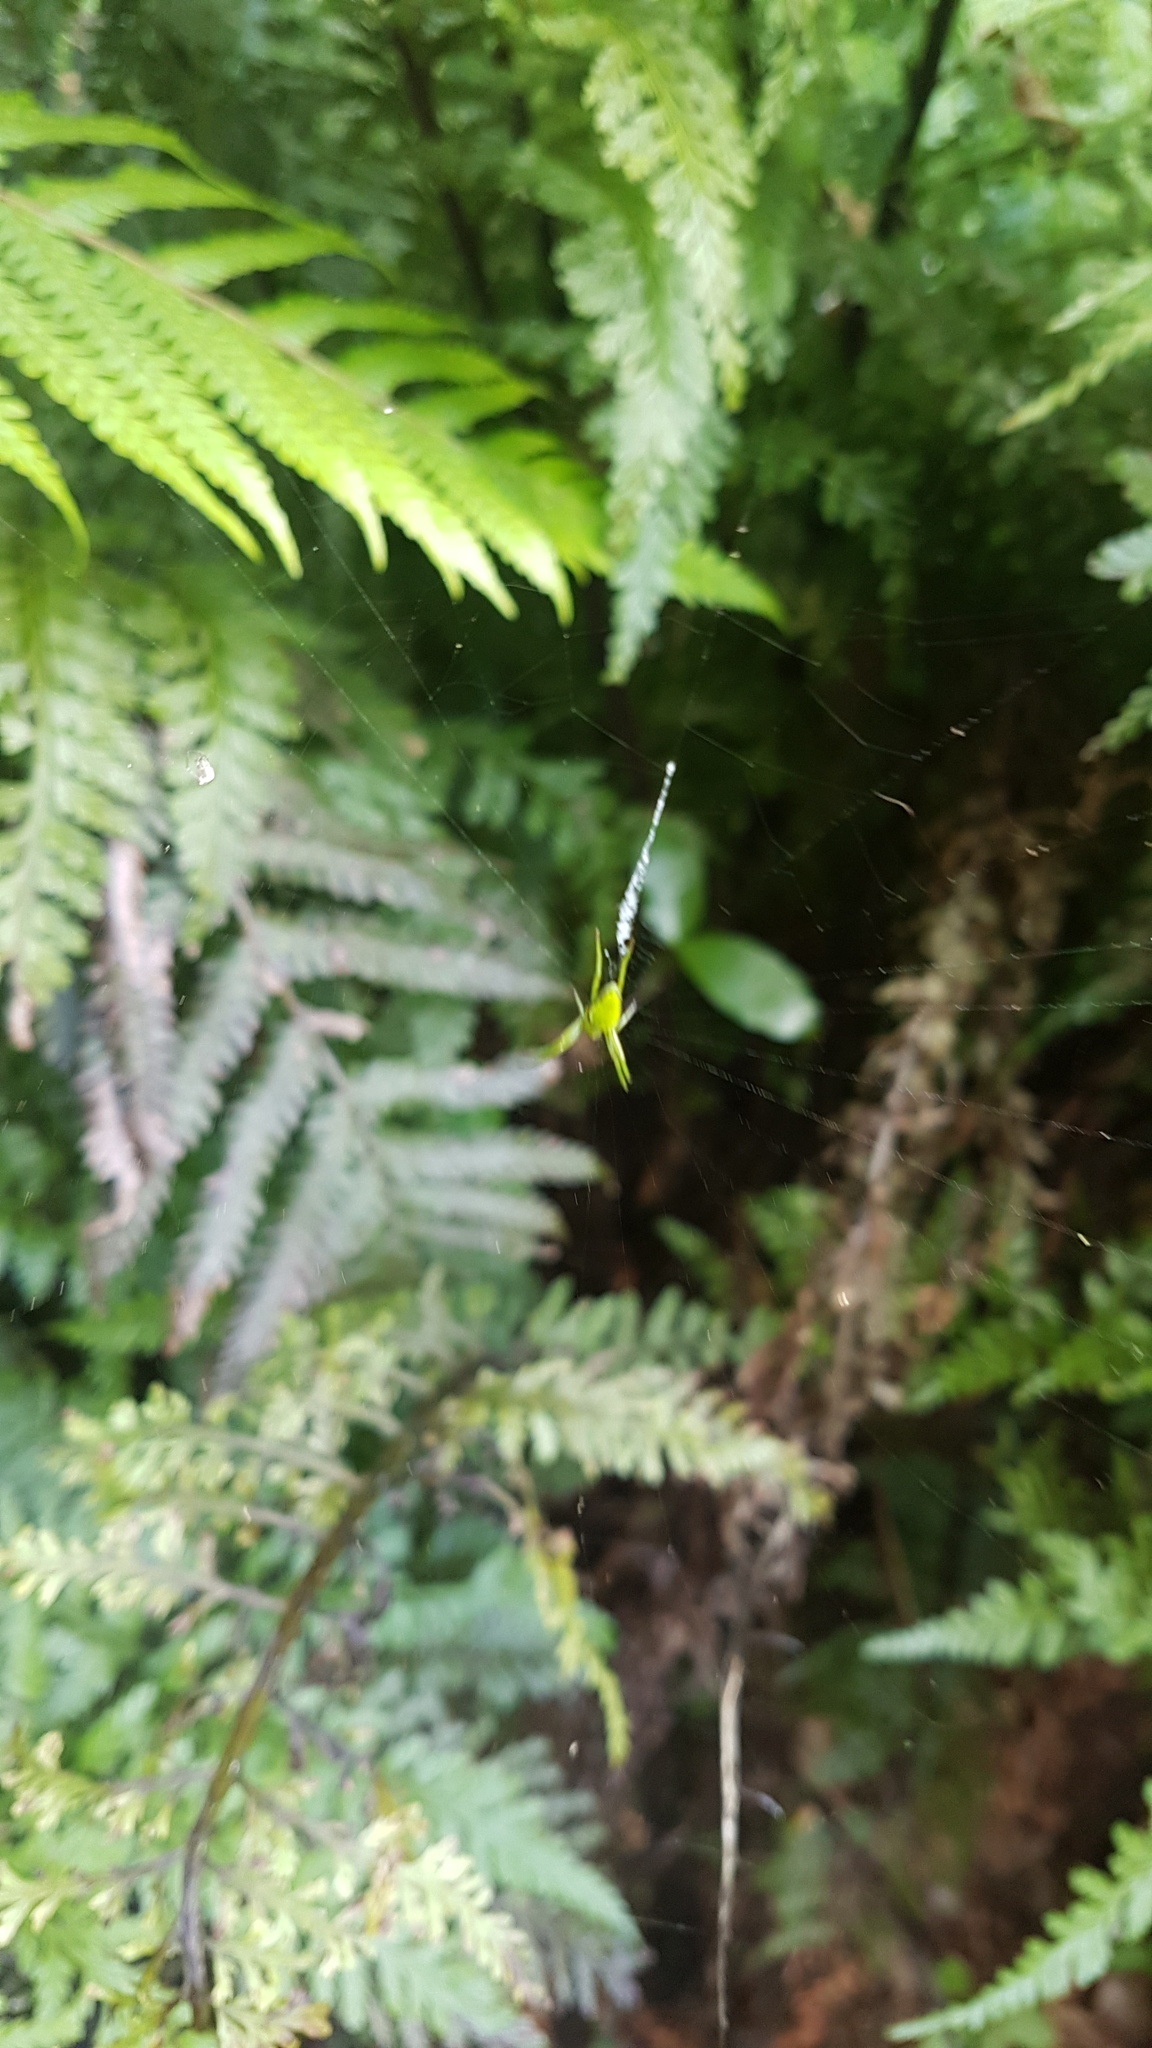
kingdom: Animalia
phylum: Arthropoda
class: Arachnida
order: Araneae
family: Araneidae
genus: Colaranea
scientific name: Colaranea viriditas
